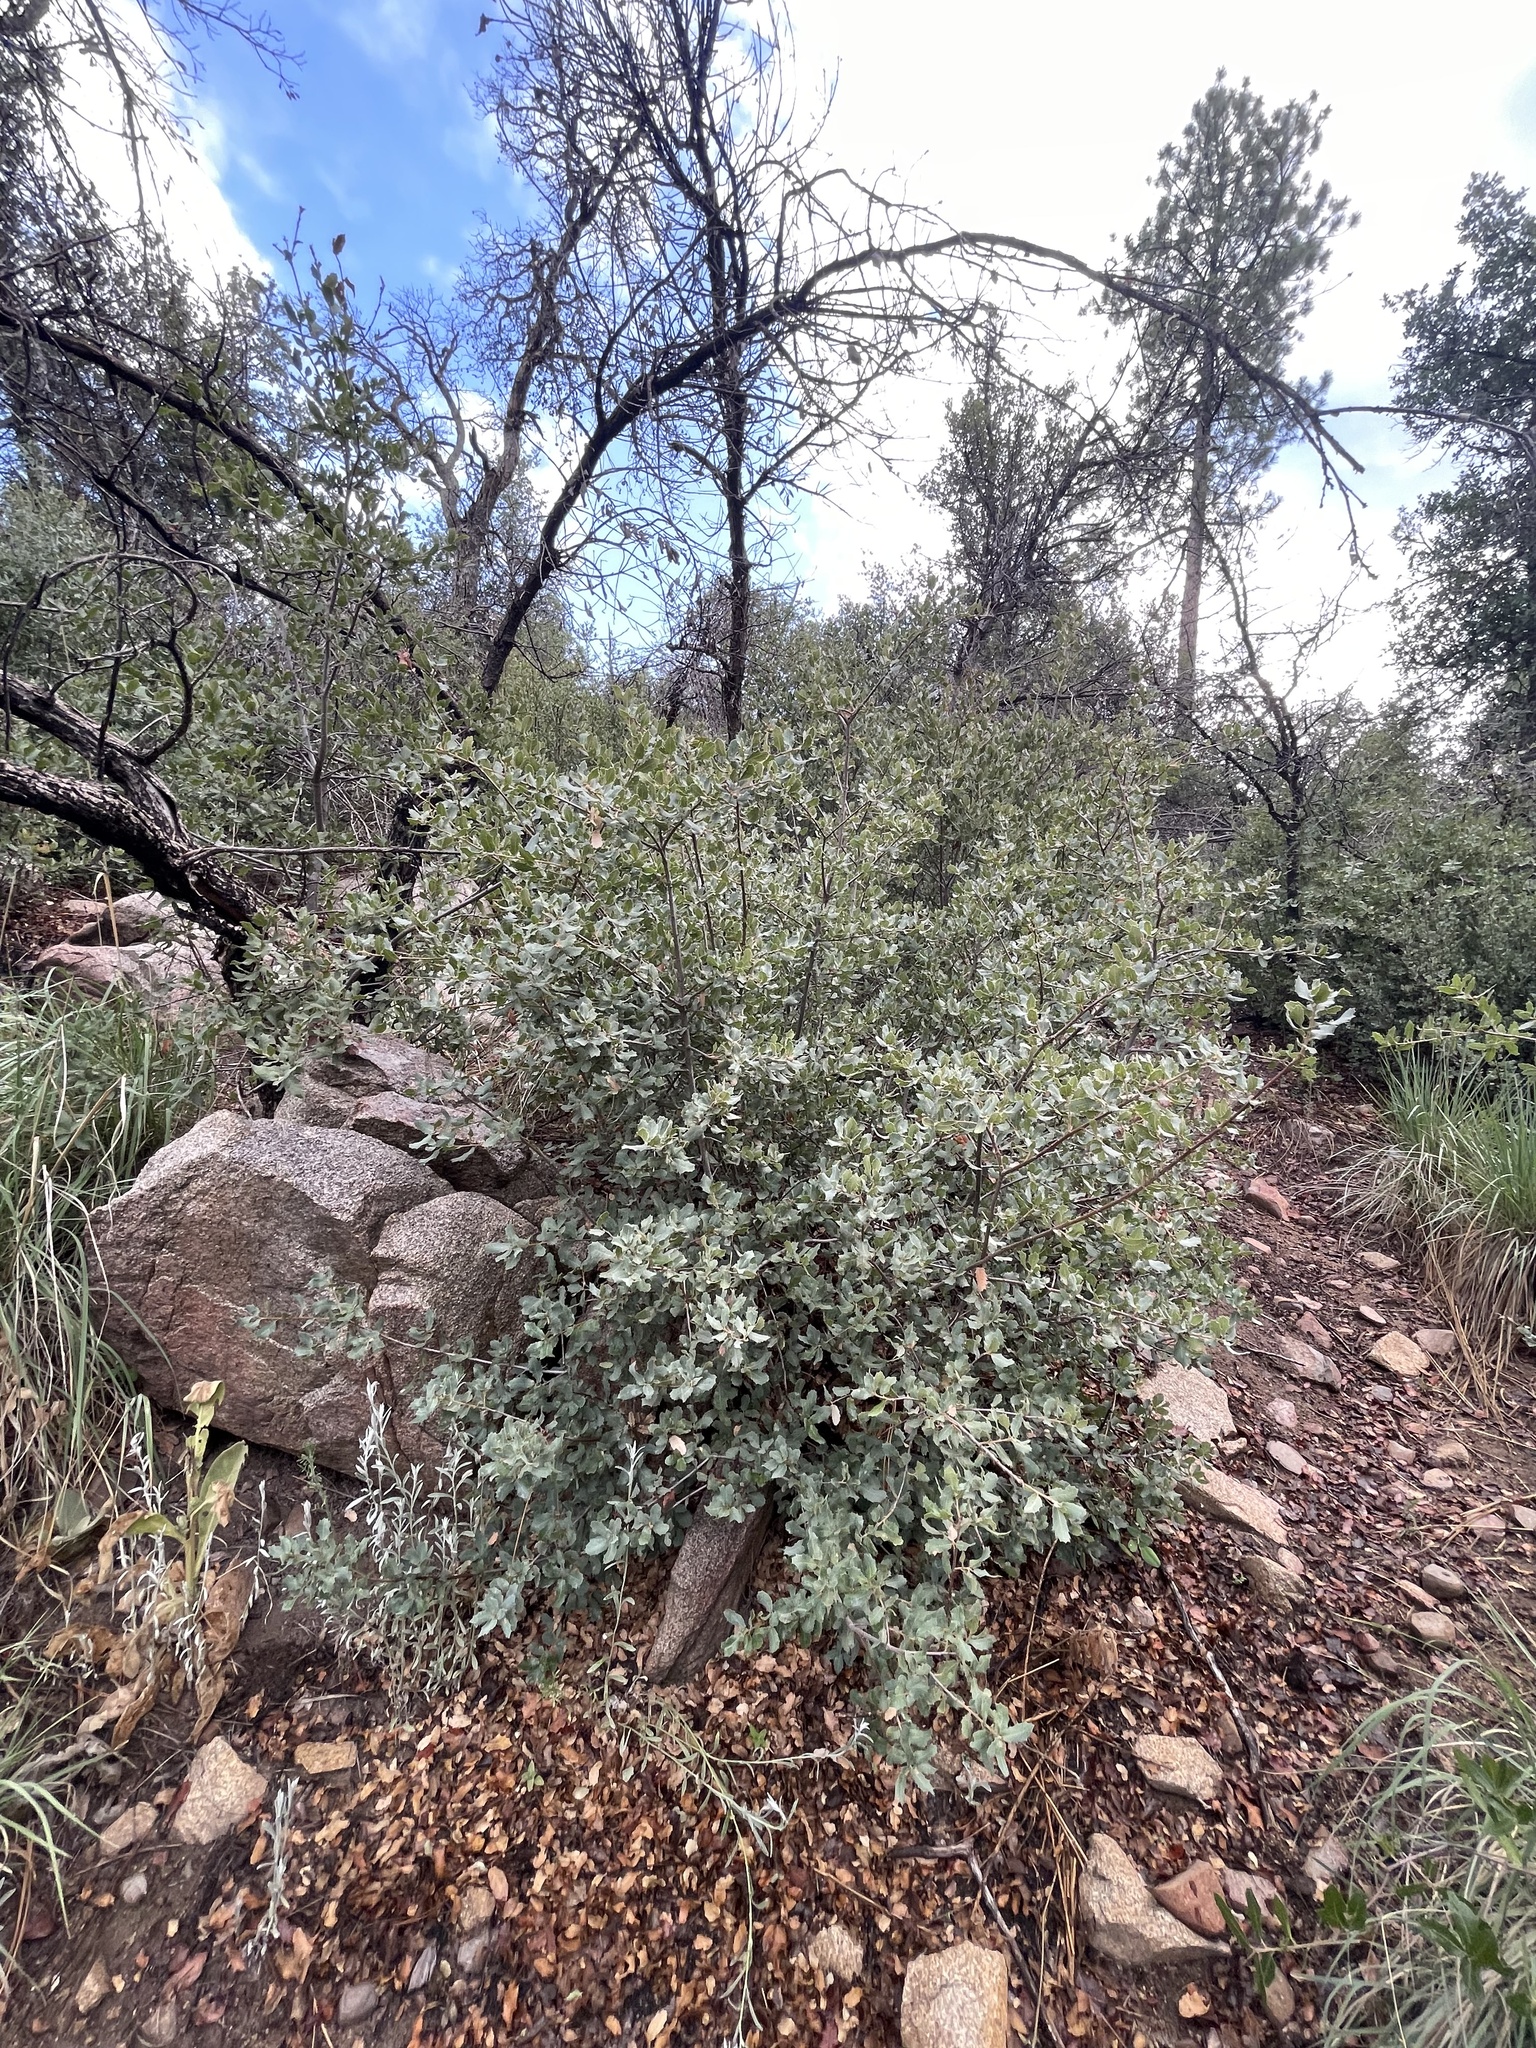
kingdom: Plantae
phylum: Tracheophyta
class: Magnoliopsida
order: Fagales
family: Fagaceae
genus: Quercus
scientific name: Quercus turbinella
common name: Sonoran scrub oak
